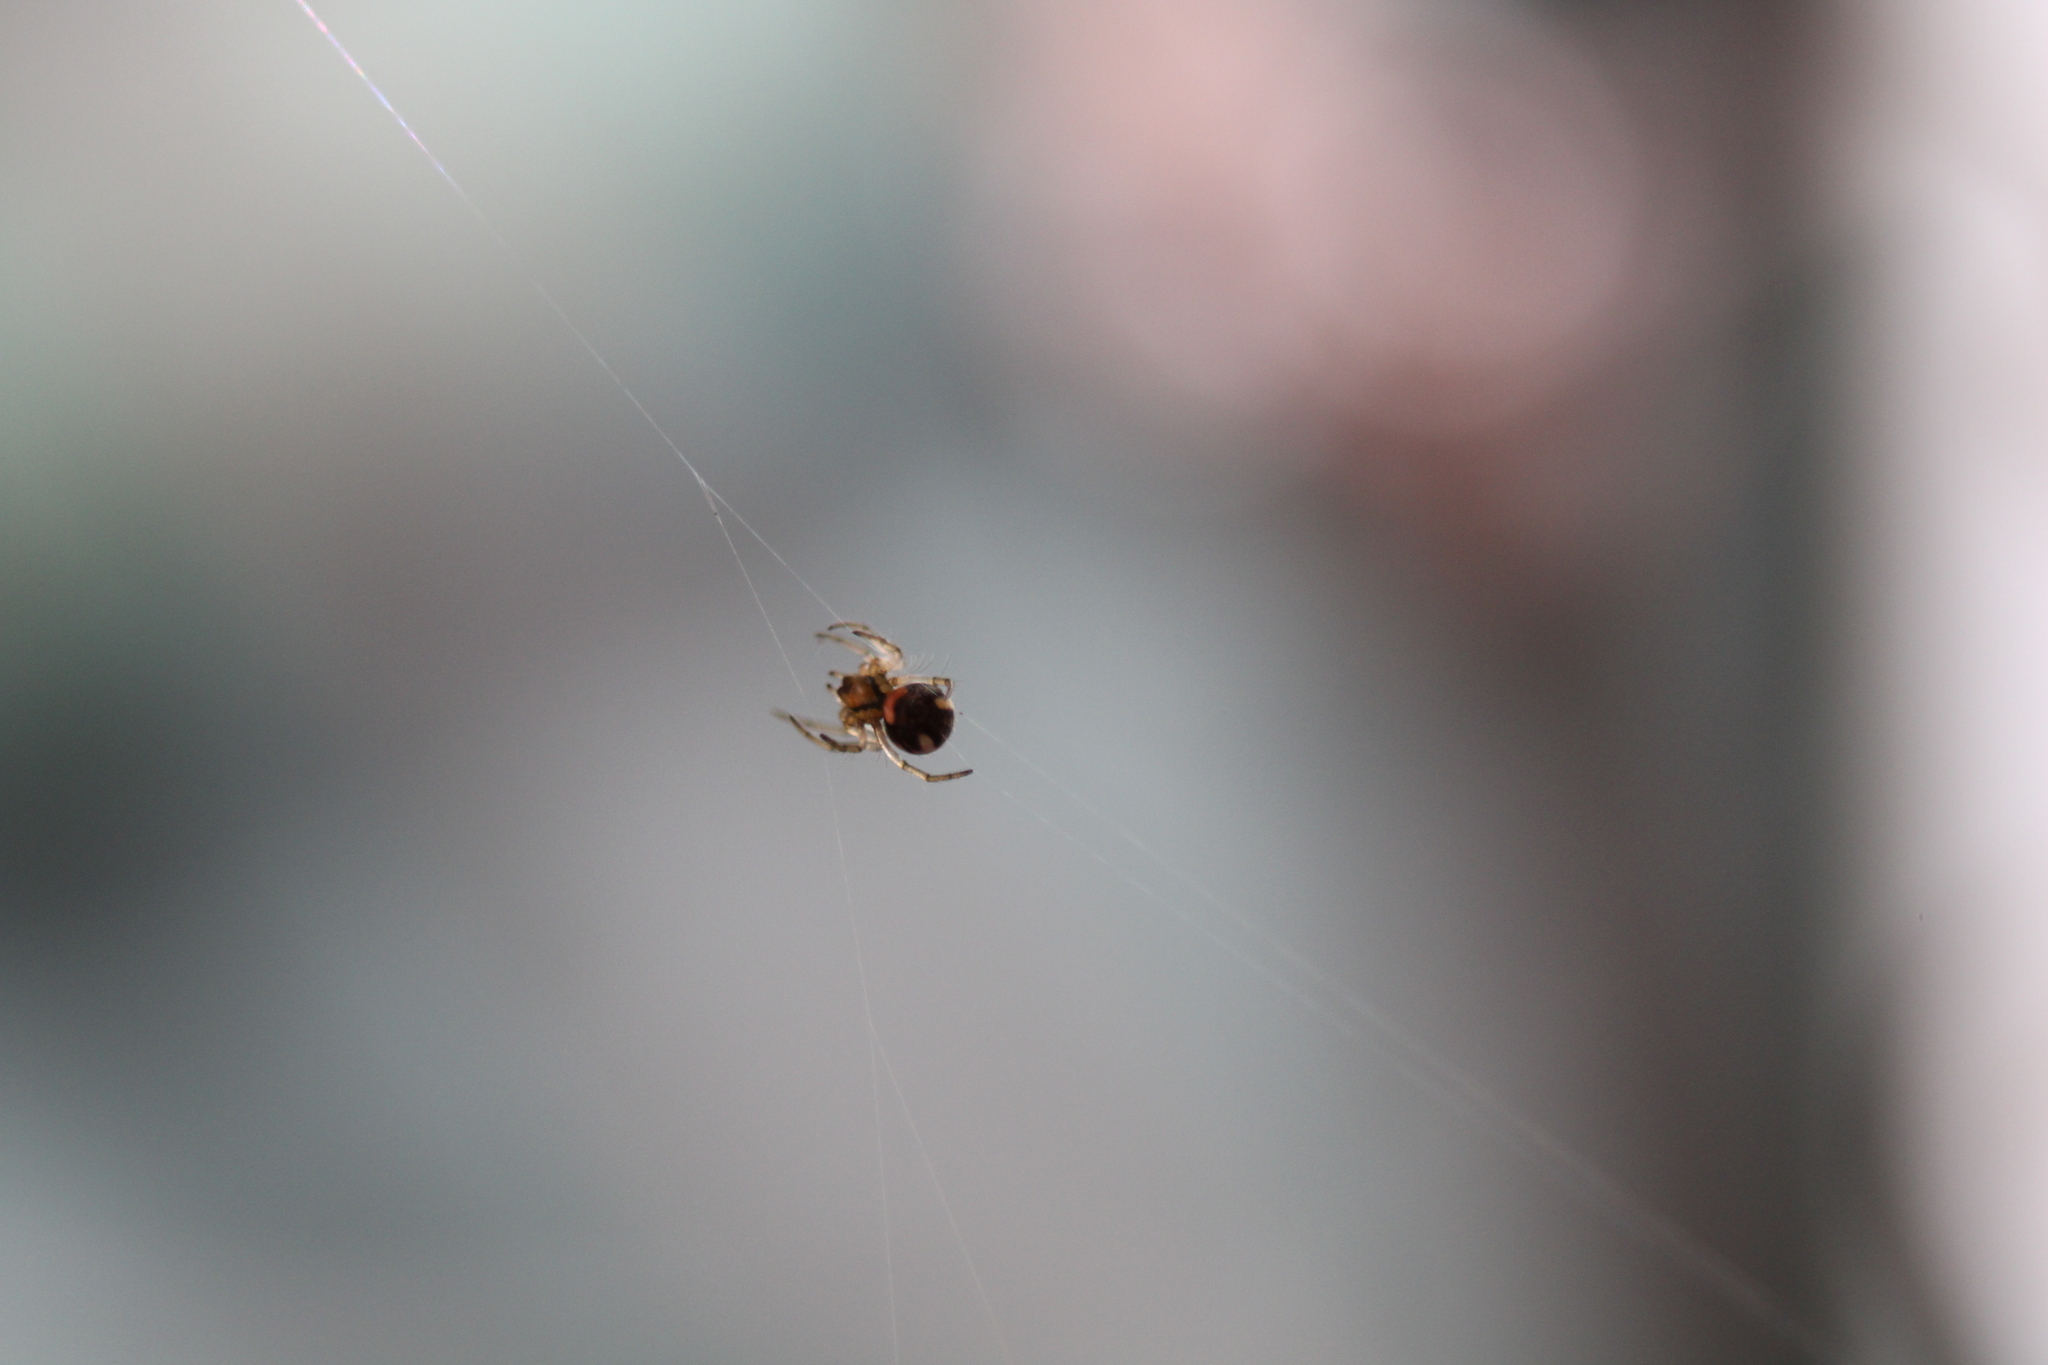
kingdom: Animalia
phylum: Arthropoda
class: Arachnida
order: Araneae
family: Tetragnathidae
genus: Leucauge
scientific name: Leucauge venusta
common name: Longjawed orb weavers
